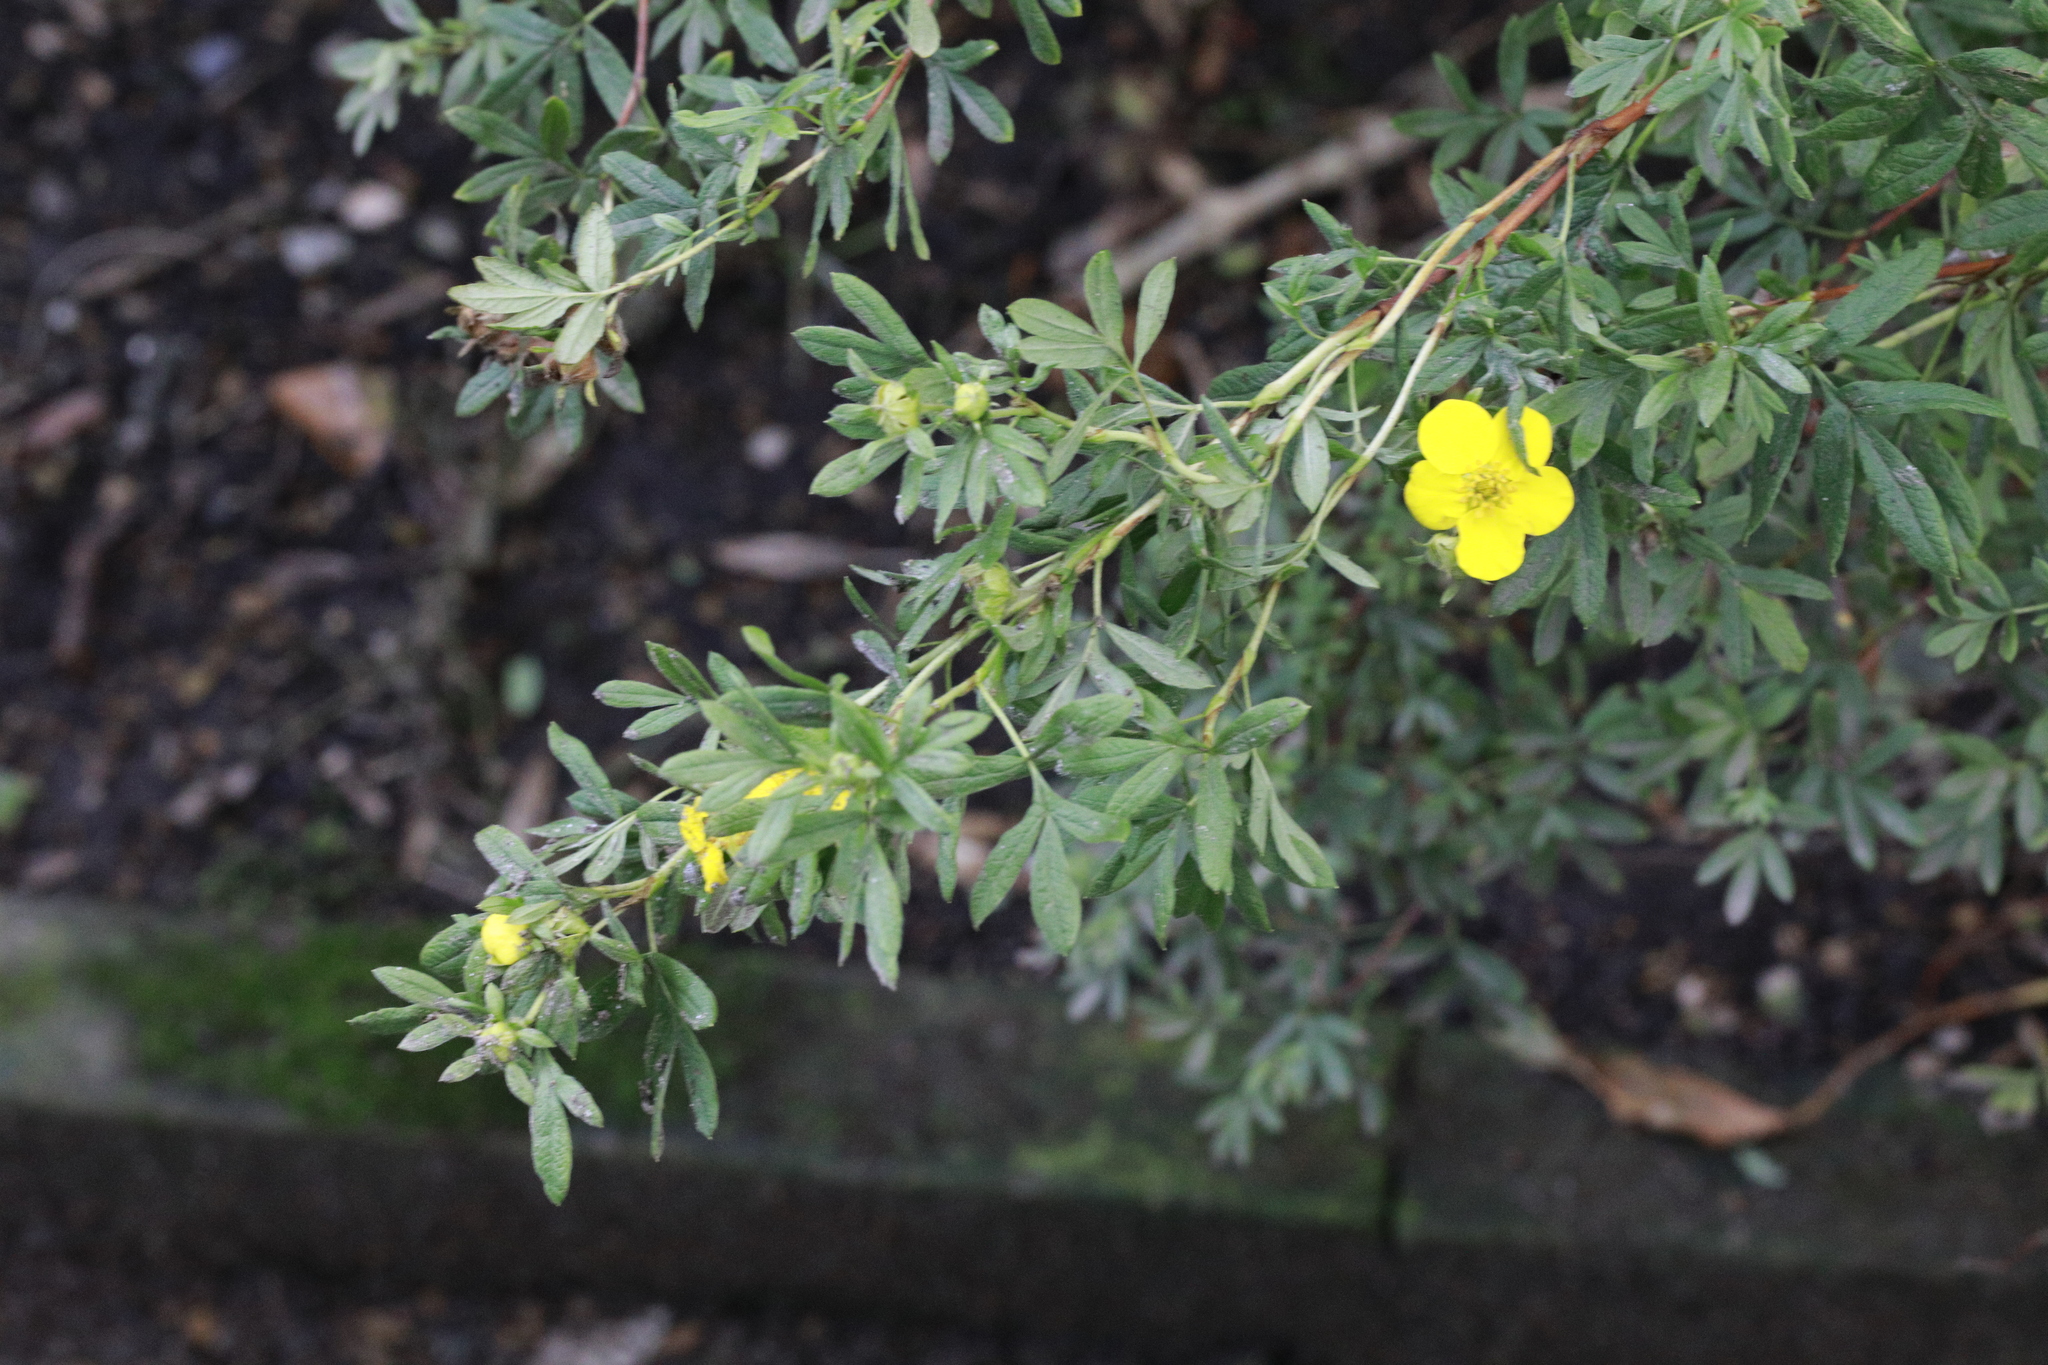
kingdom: Plantae
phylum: Tracheophyta
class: Magnoliopsida
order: Rosales
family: Rosaceae
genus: Dasiphora
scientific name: Dasiphora fruticosa
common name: Shrubby cinquefoil
